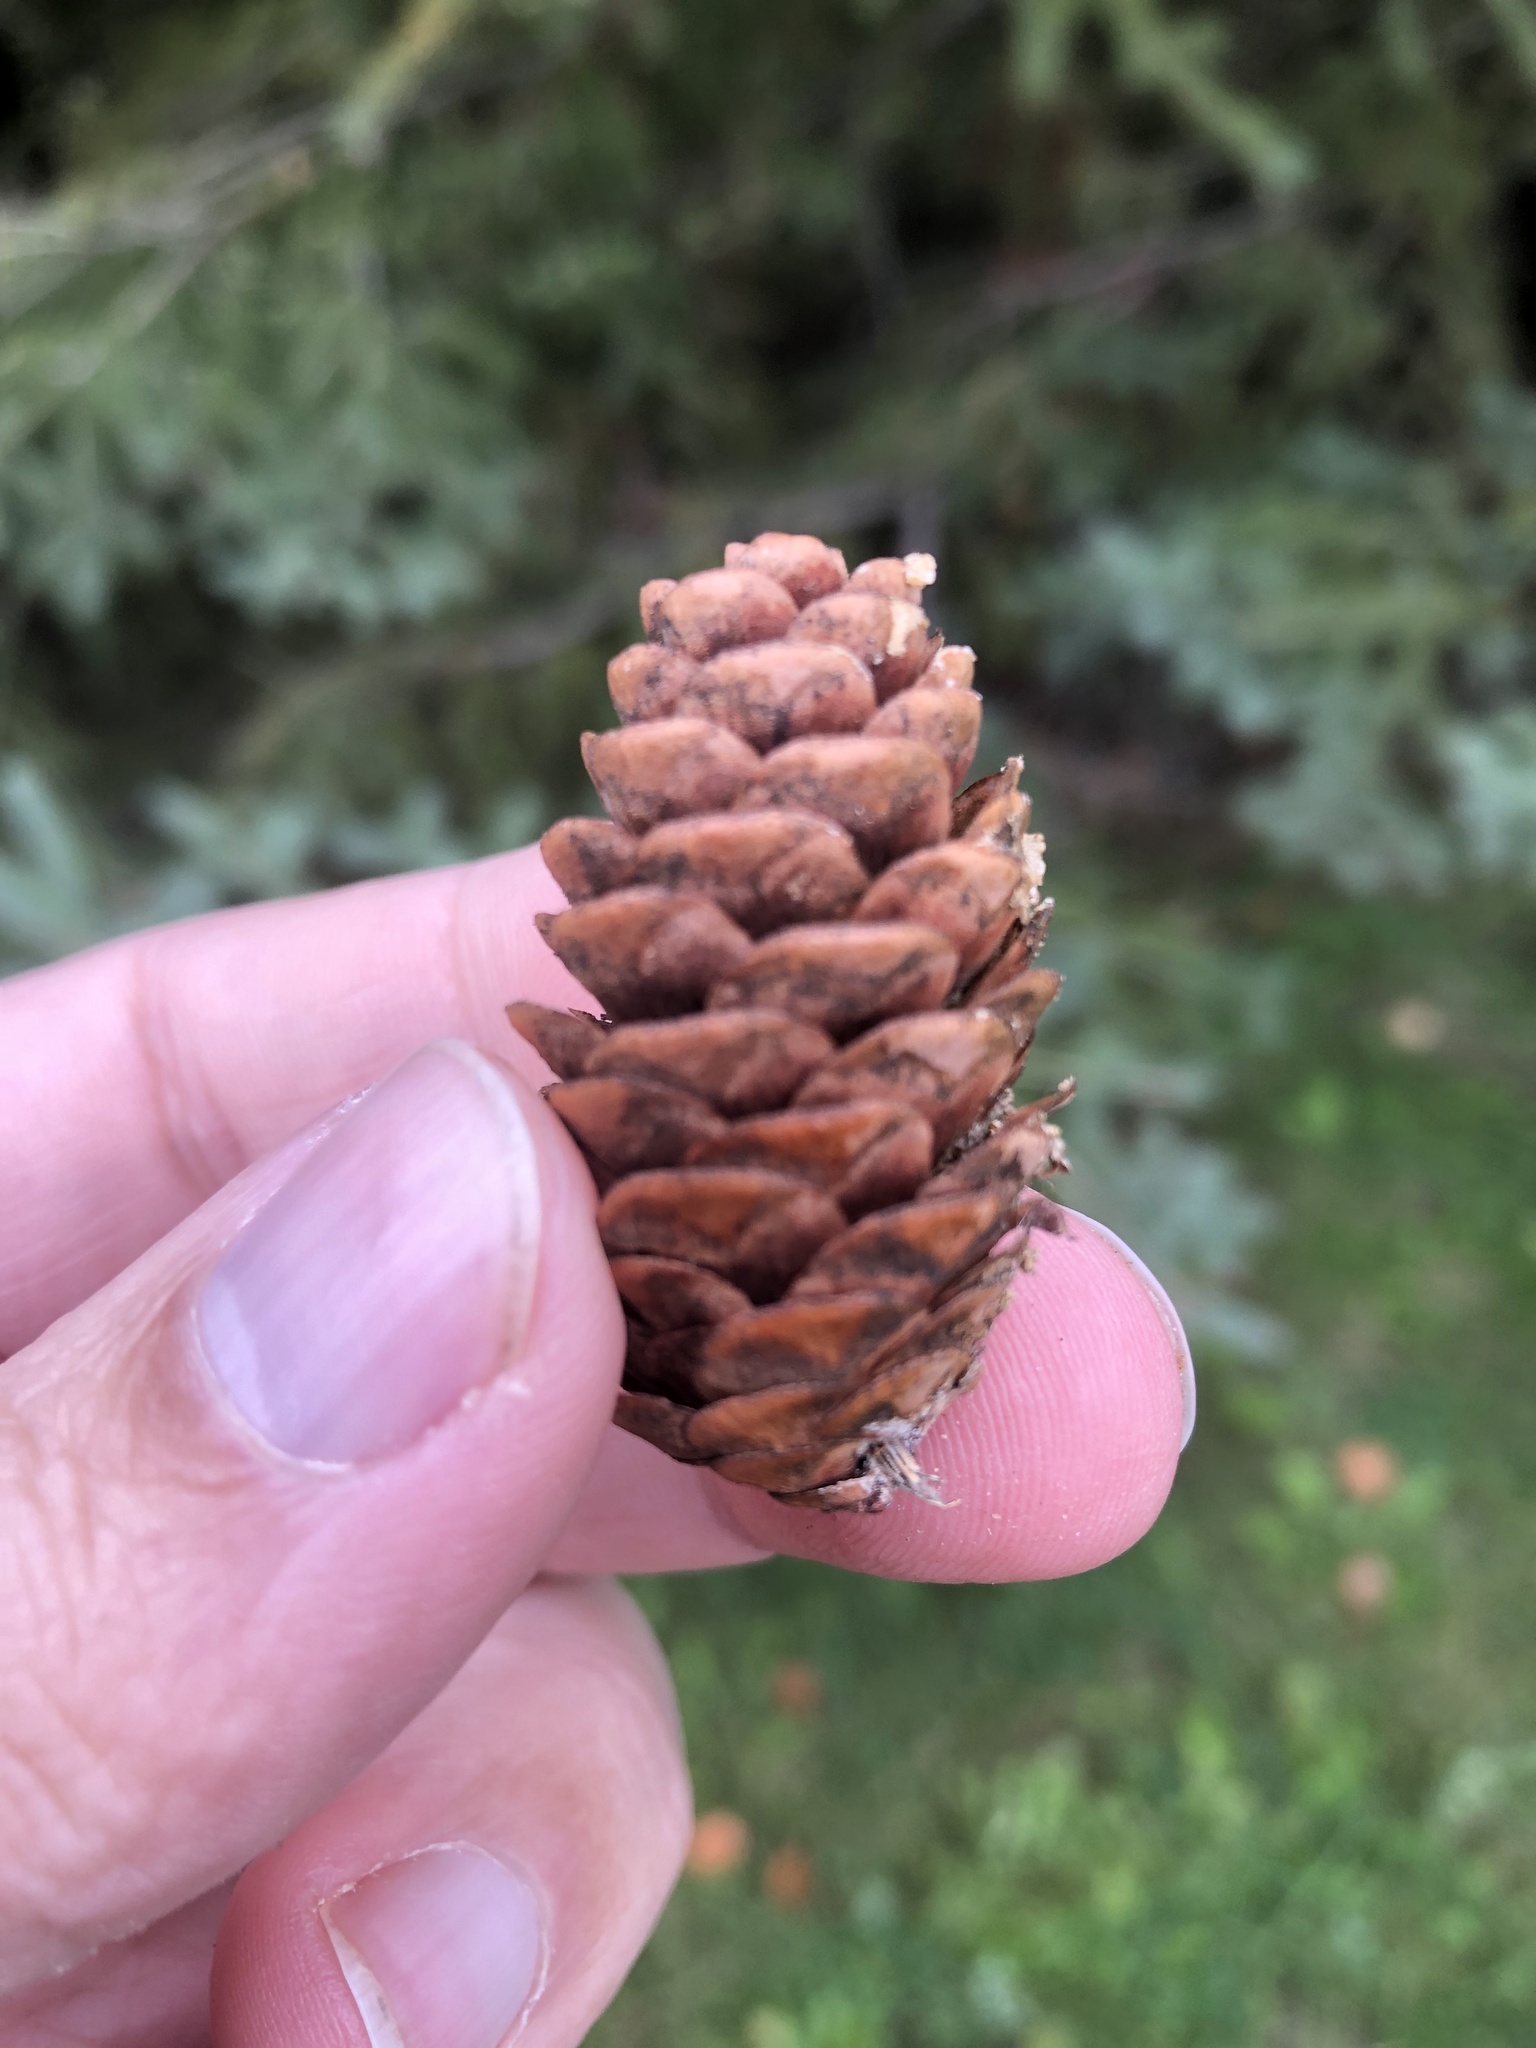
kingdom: Plantae
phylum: Tracheophyta
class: Pinopsida
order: Pinales
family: Pinaceae
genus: Picea
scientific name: Picea glauca
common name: White spruce
